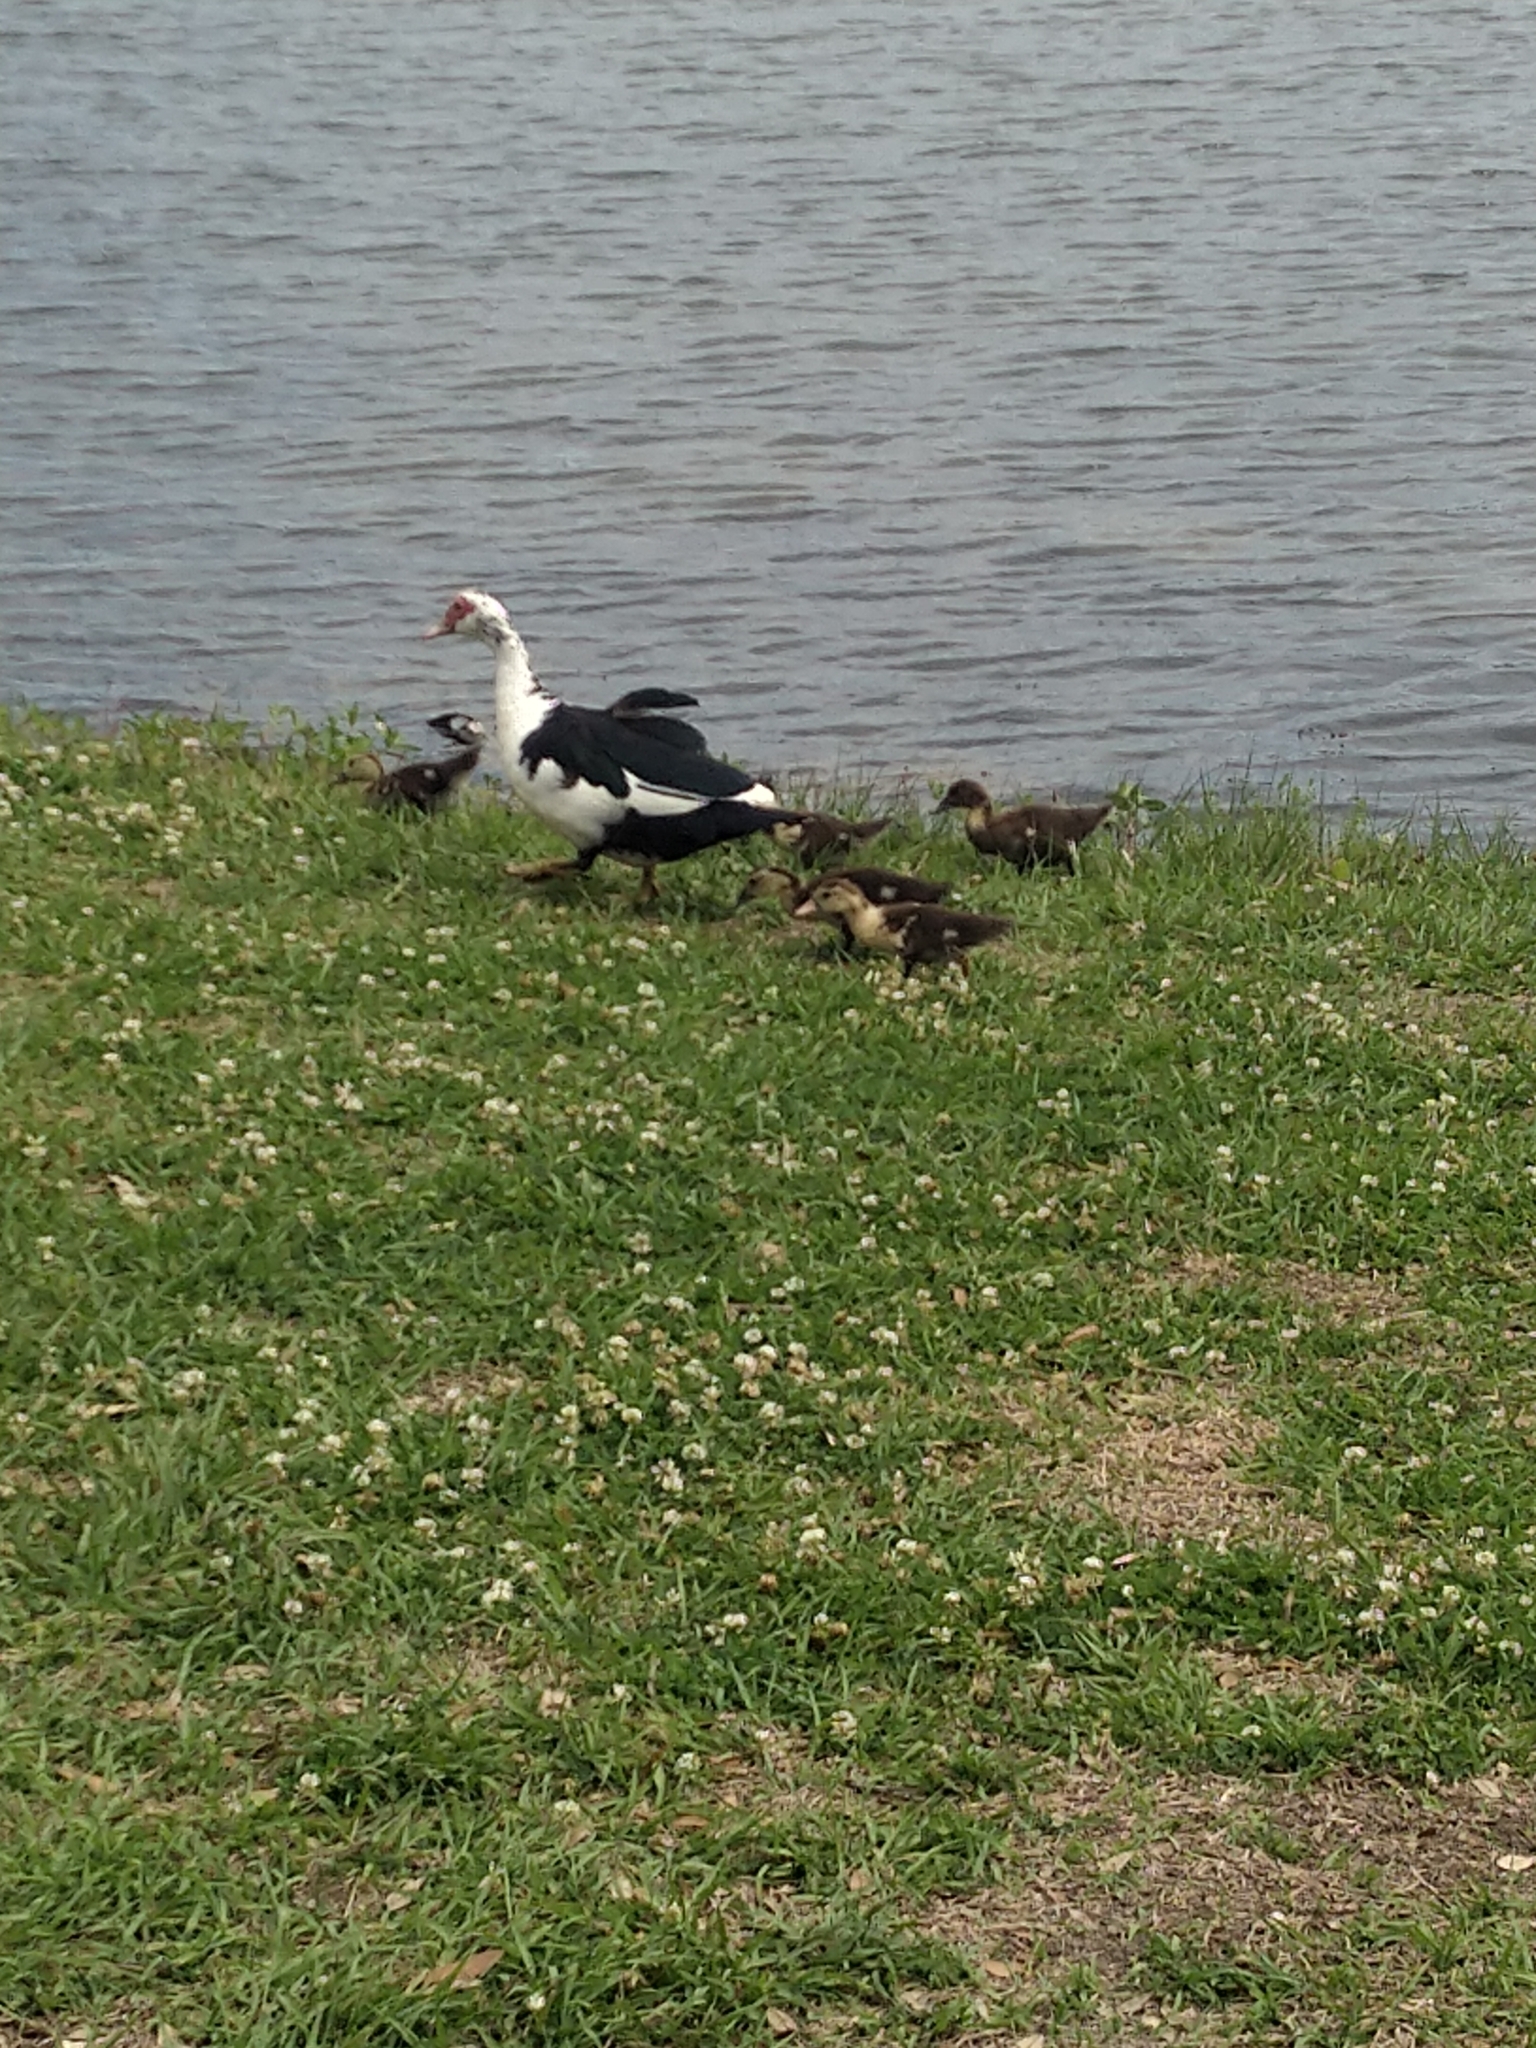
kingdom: Animalia
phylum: Chordata
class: Aves
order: Anseriformes
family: Anatidae
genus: Cairina
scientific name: Cairina moschata
